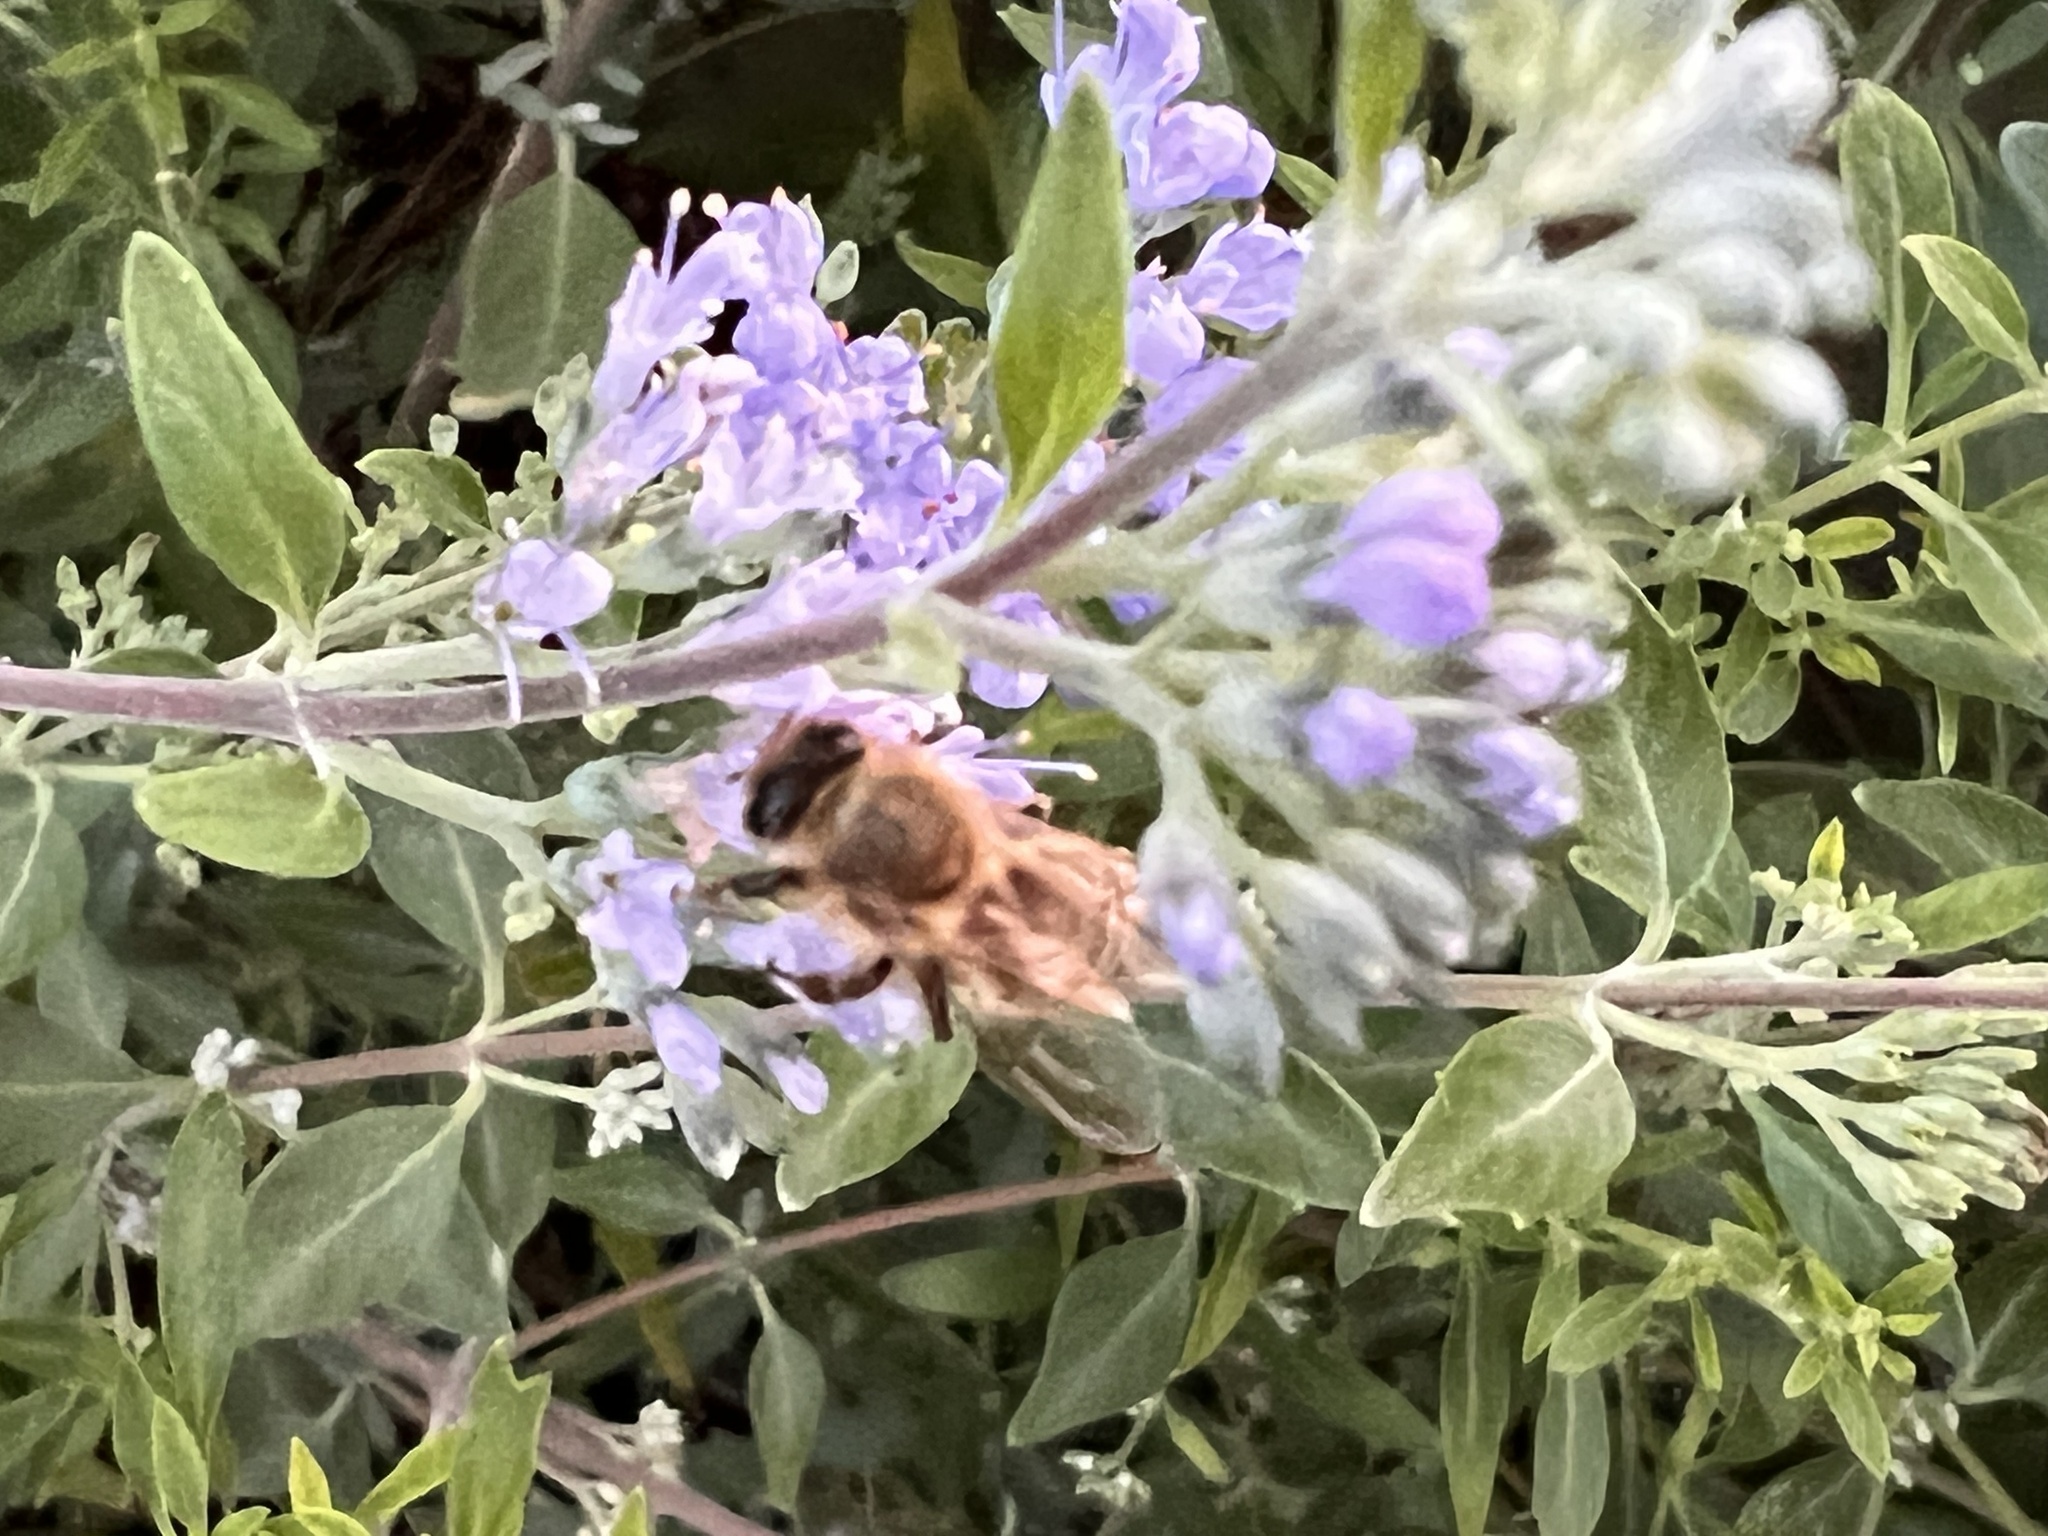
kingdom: Animalia
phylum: Arthropoda
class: Insecta
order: Hymenoptera
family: Apidae
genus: Apis
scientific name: Apis mellifera
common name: Honey bee
